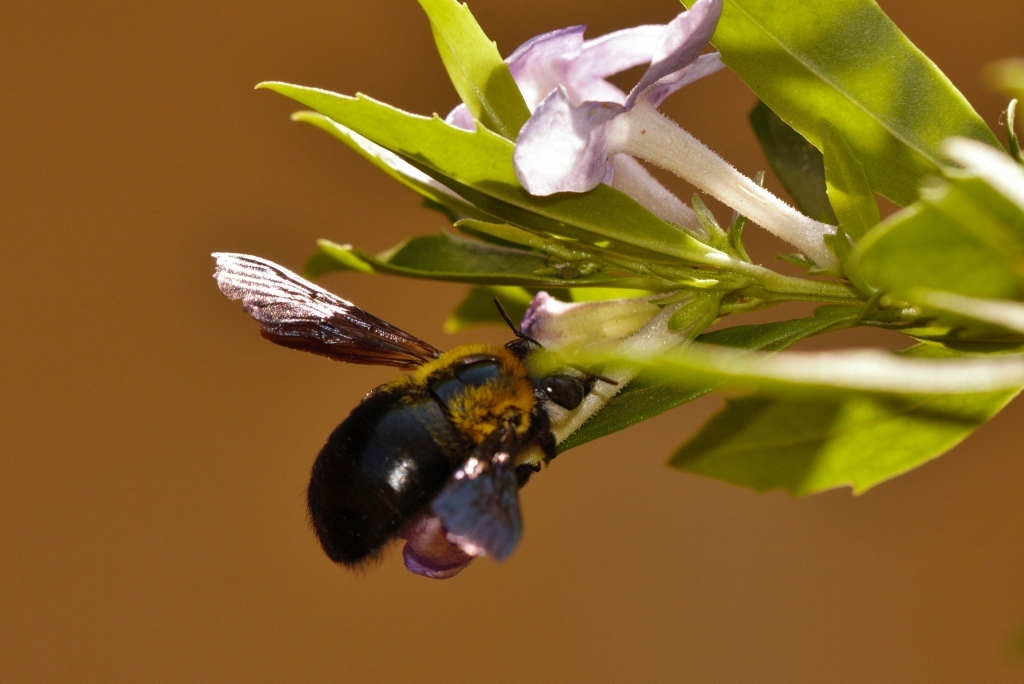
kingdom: Animalia
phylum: Arthropoda
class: Insecta
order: Hymenoptera
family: Apidae
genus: Xylocopa
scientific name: Xylocopa senior
